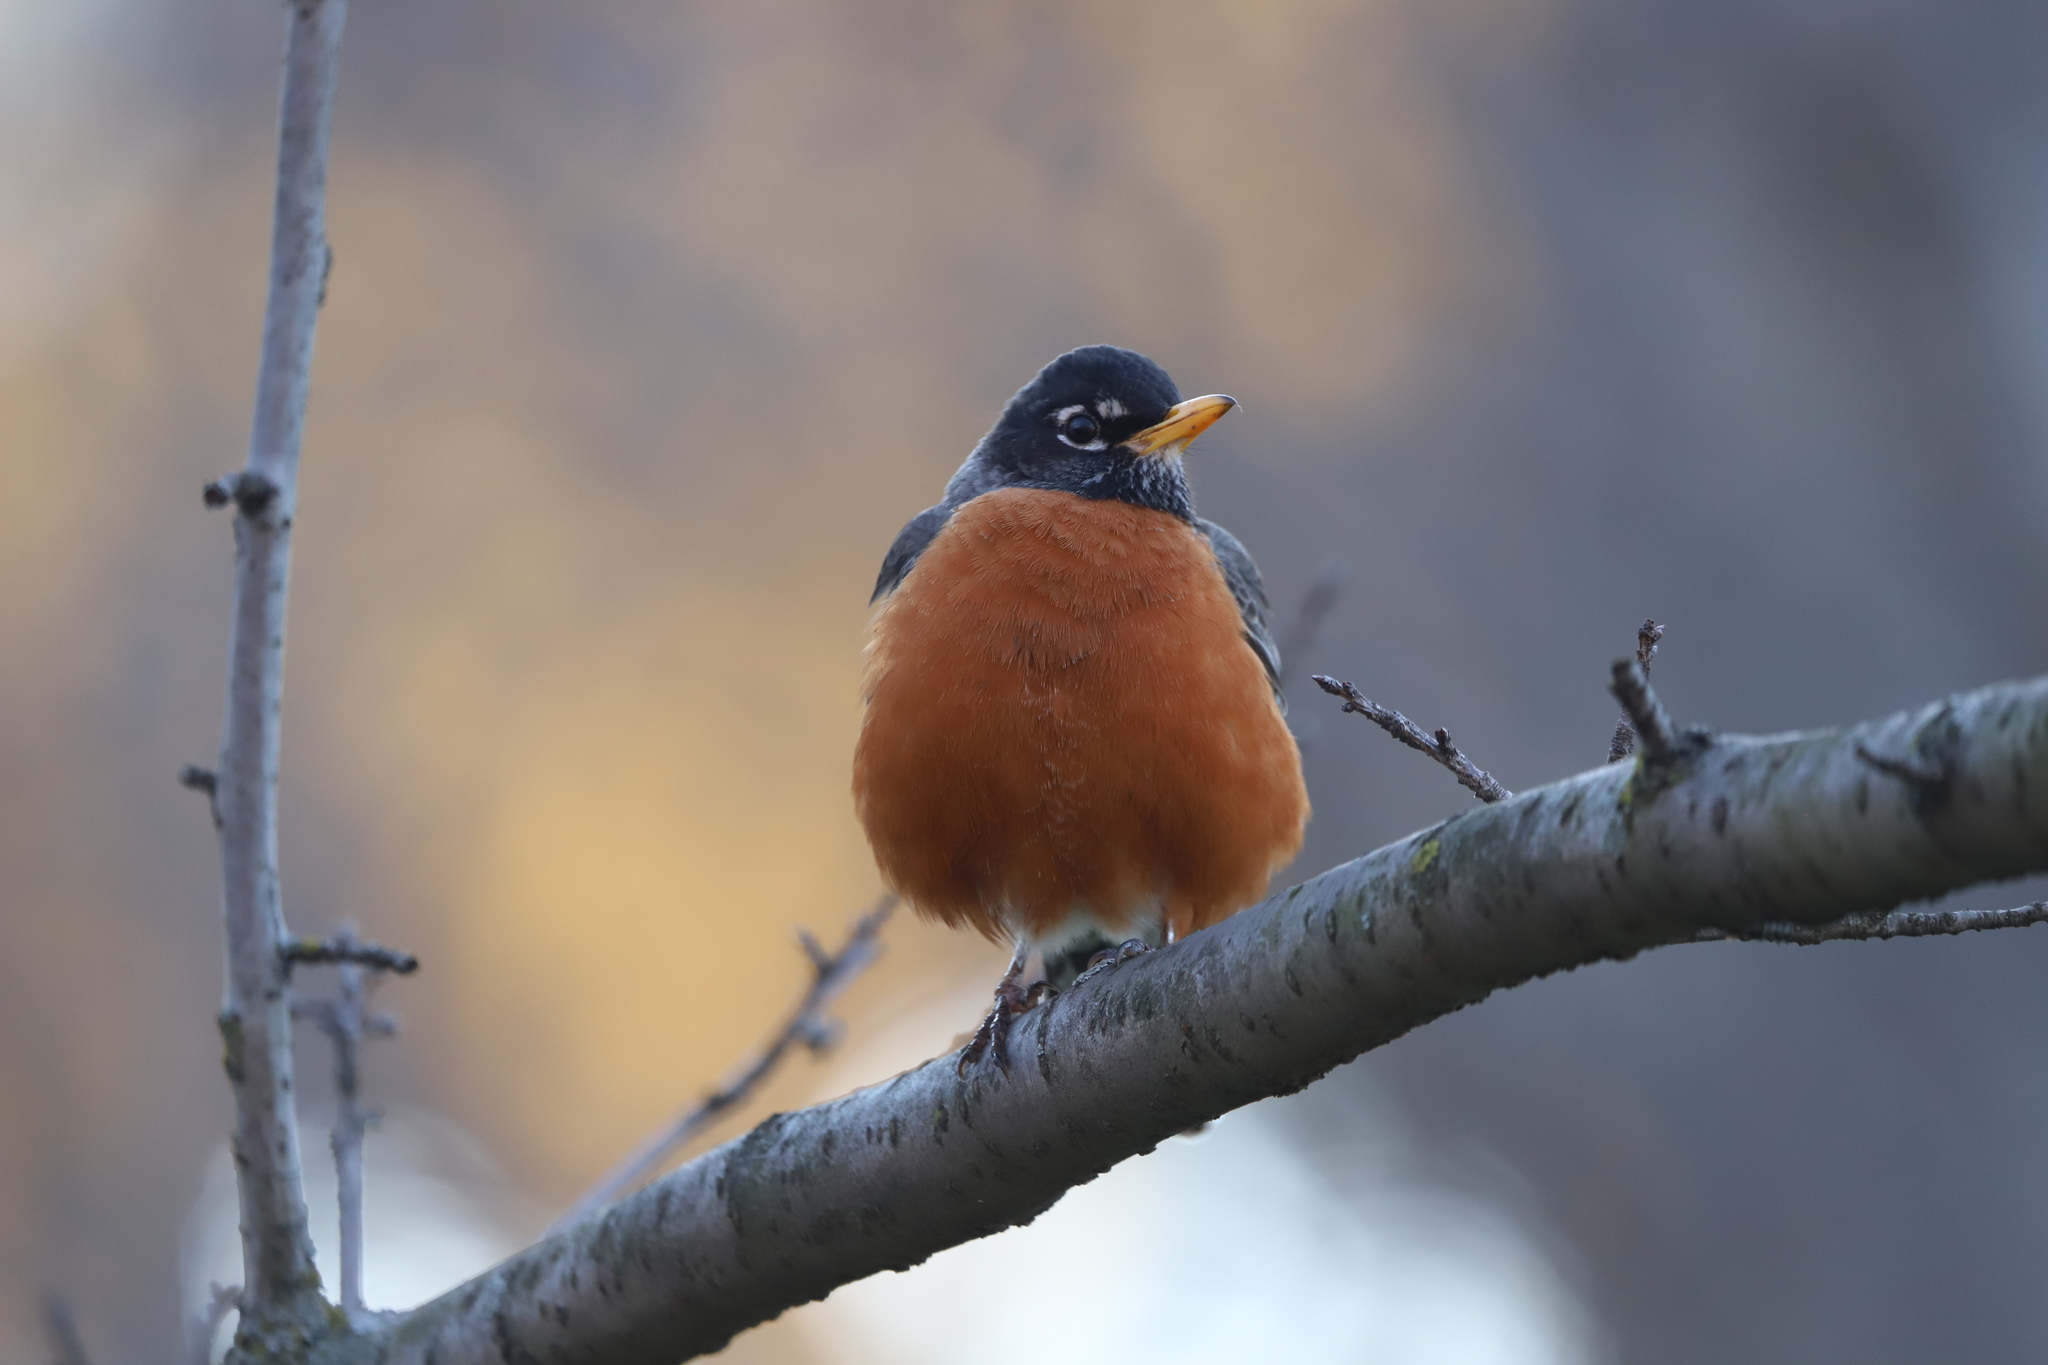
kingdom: Animalia
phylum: Chordata
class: Aves
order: Passeriformes
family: Turdidae
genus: Turdus
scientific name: Turdus migratorius
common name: American robin
